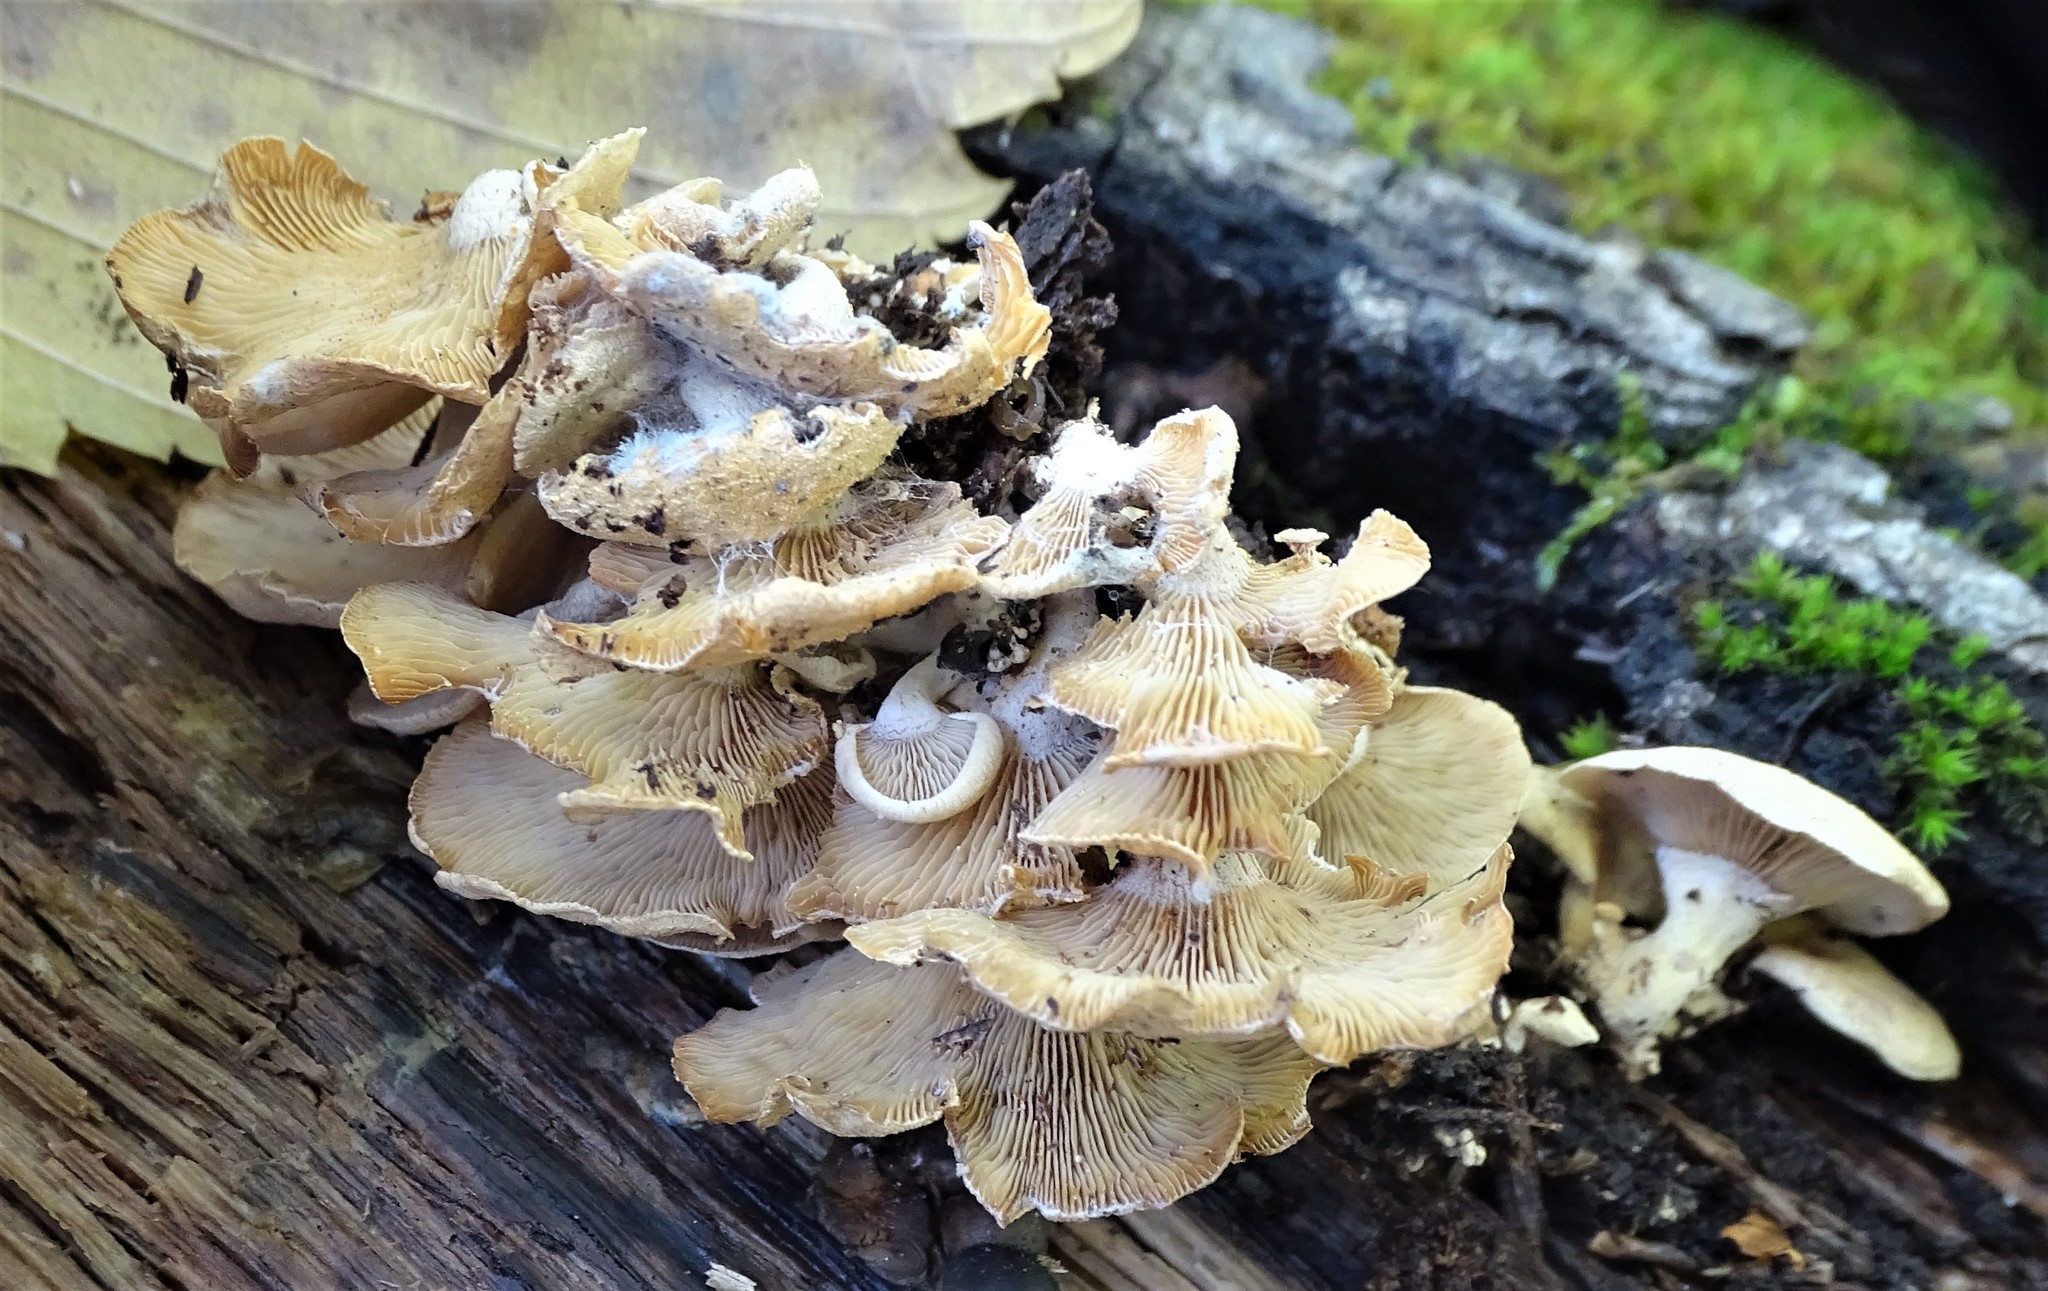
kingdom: Fungi
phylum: Basidiomycota
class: Agaricomycetes
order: Agaricales
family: Mycenaceae
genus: Panellus
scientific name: Panellus stipticus
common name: Bitter oysterling
